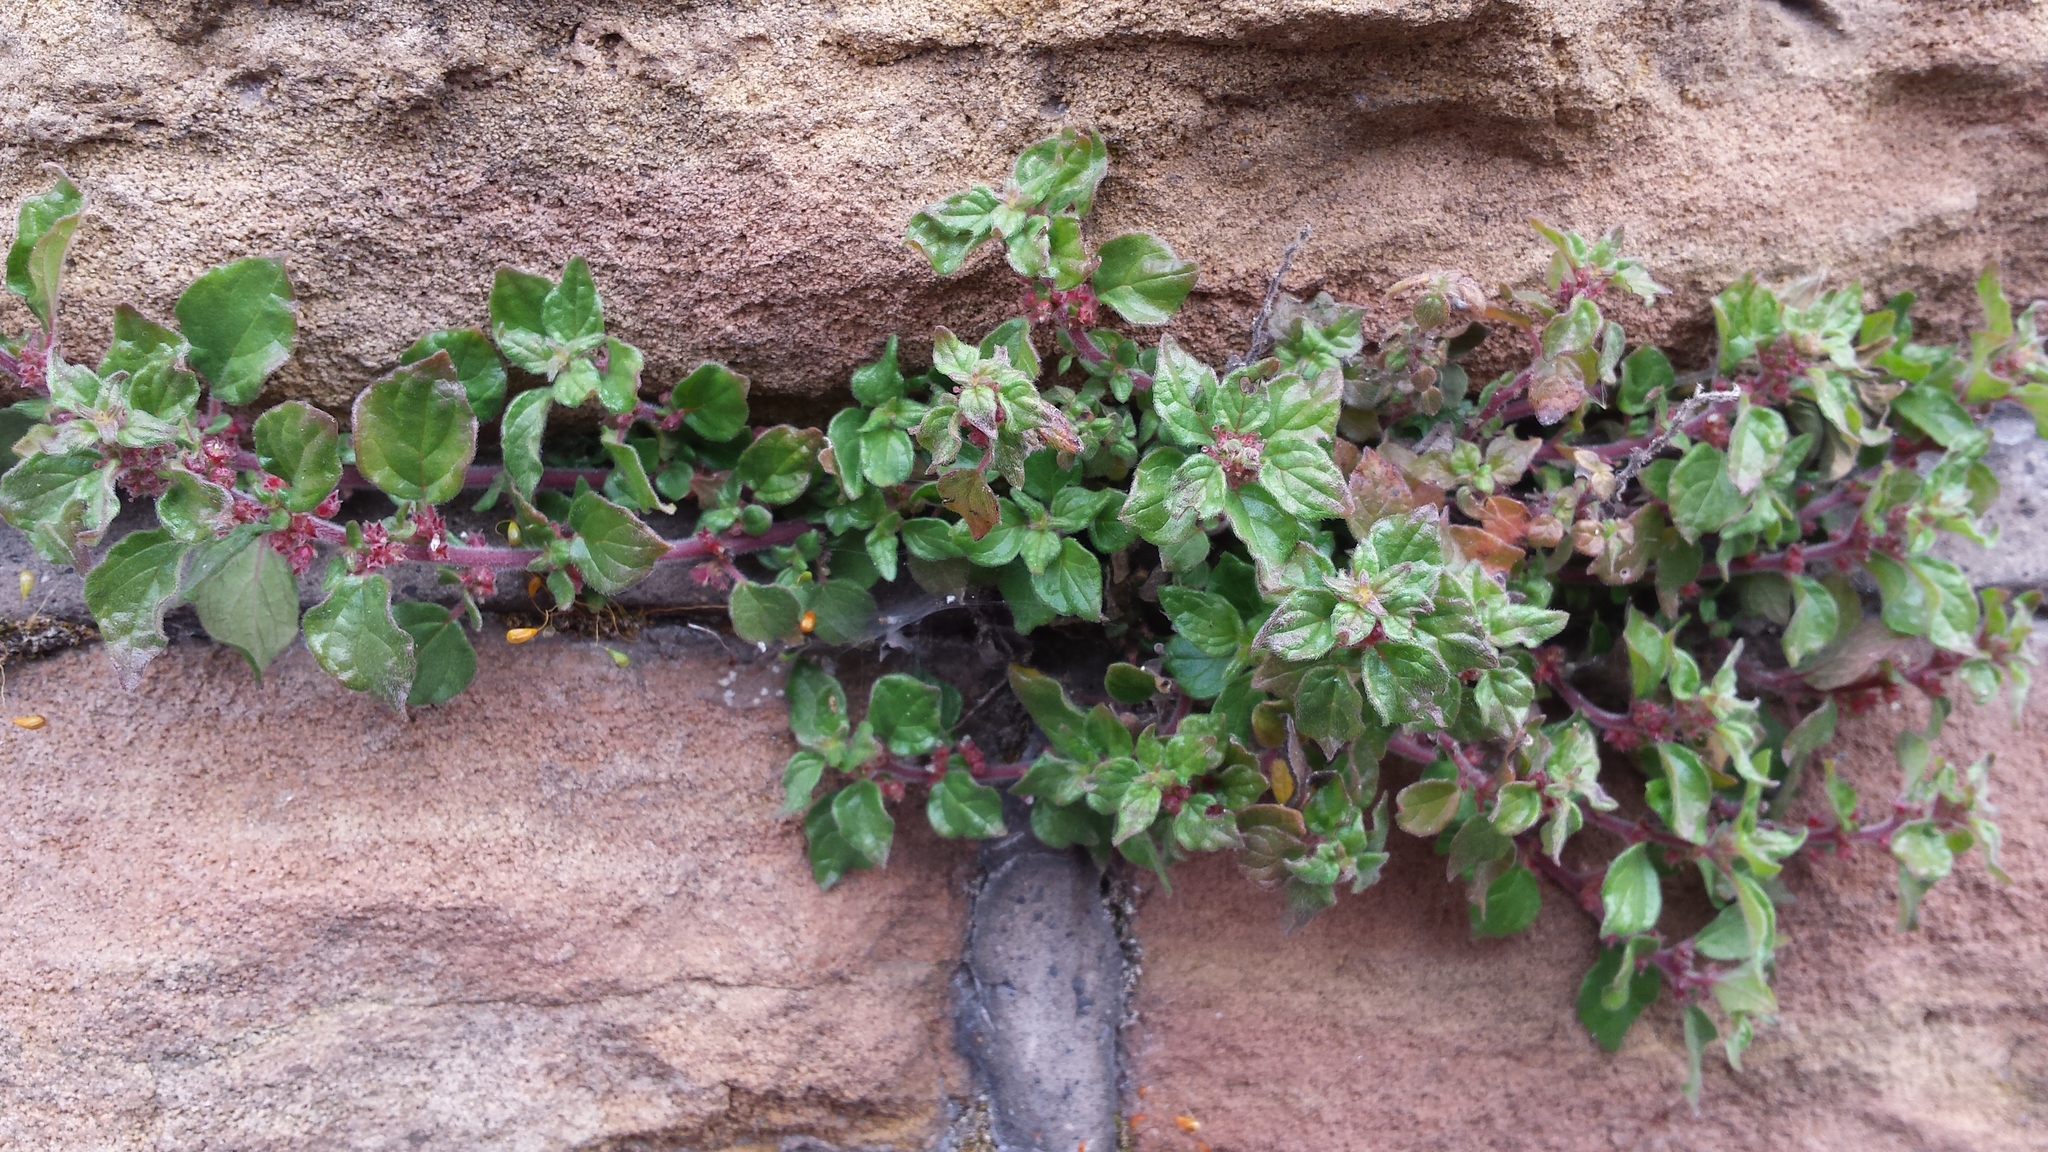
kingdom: Plantae
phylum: Tracheophyta
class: Magnoliopsida
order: Rosales
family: Urticaceae
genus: Parietaria
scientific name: Parietaria judaica
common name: Pellitory-of-the-wall
